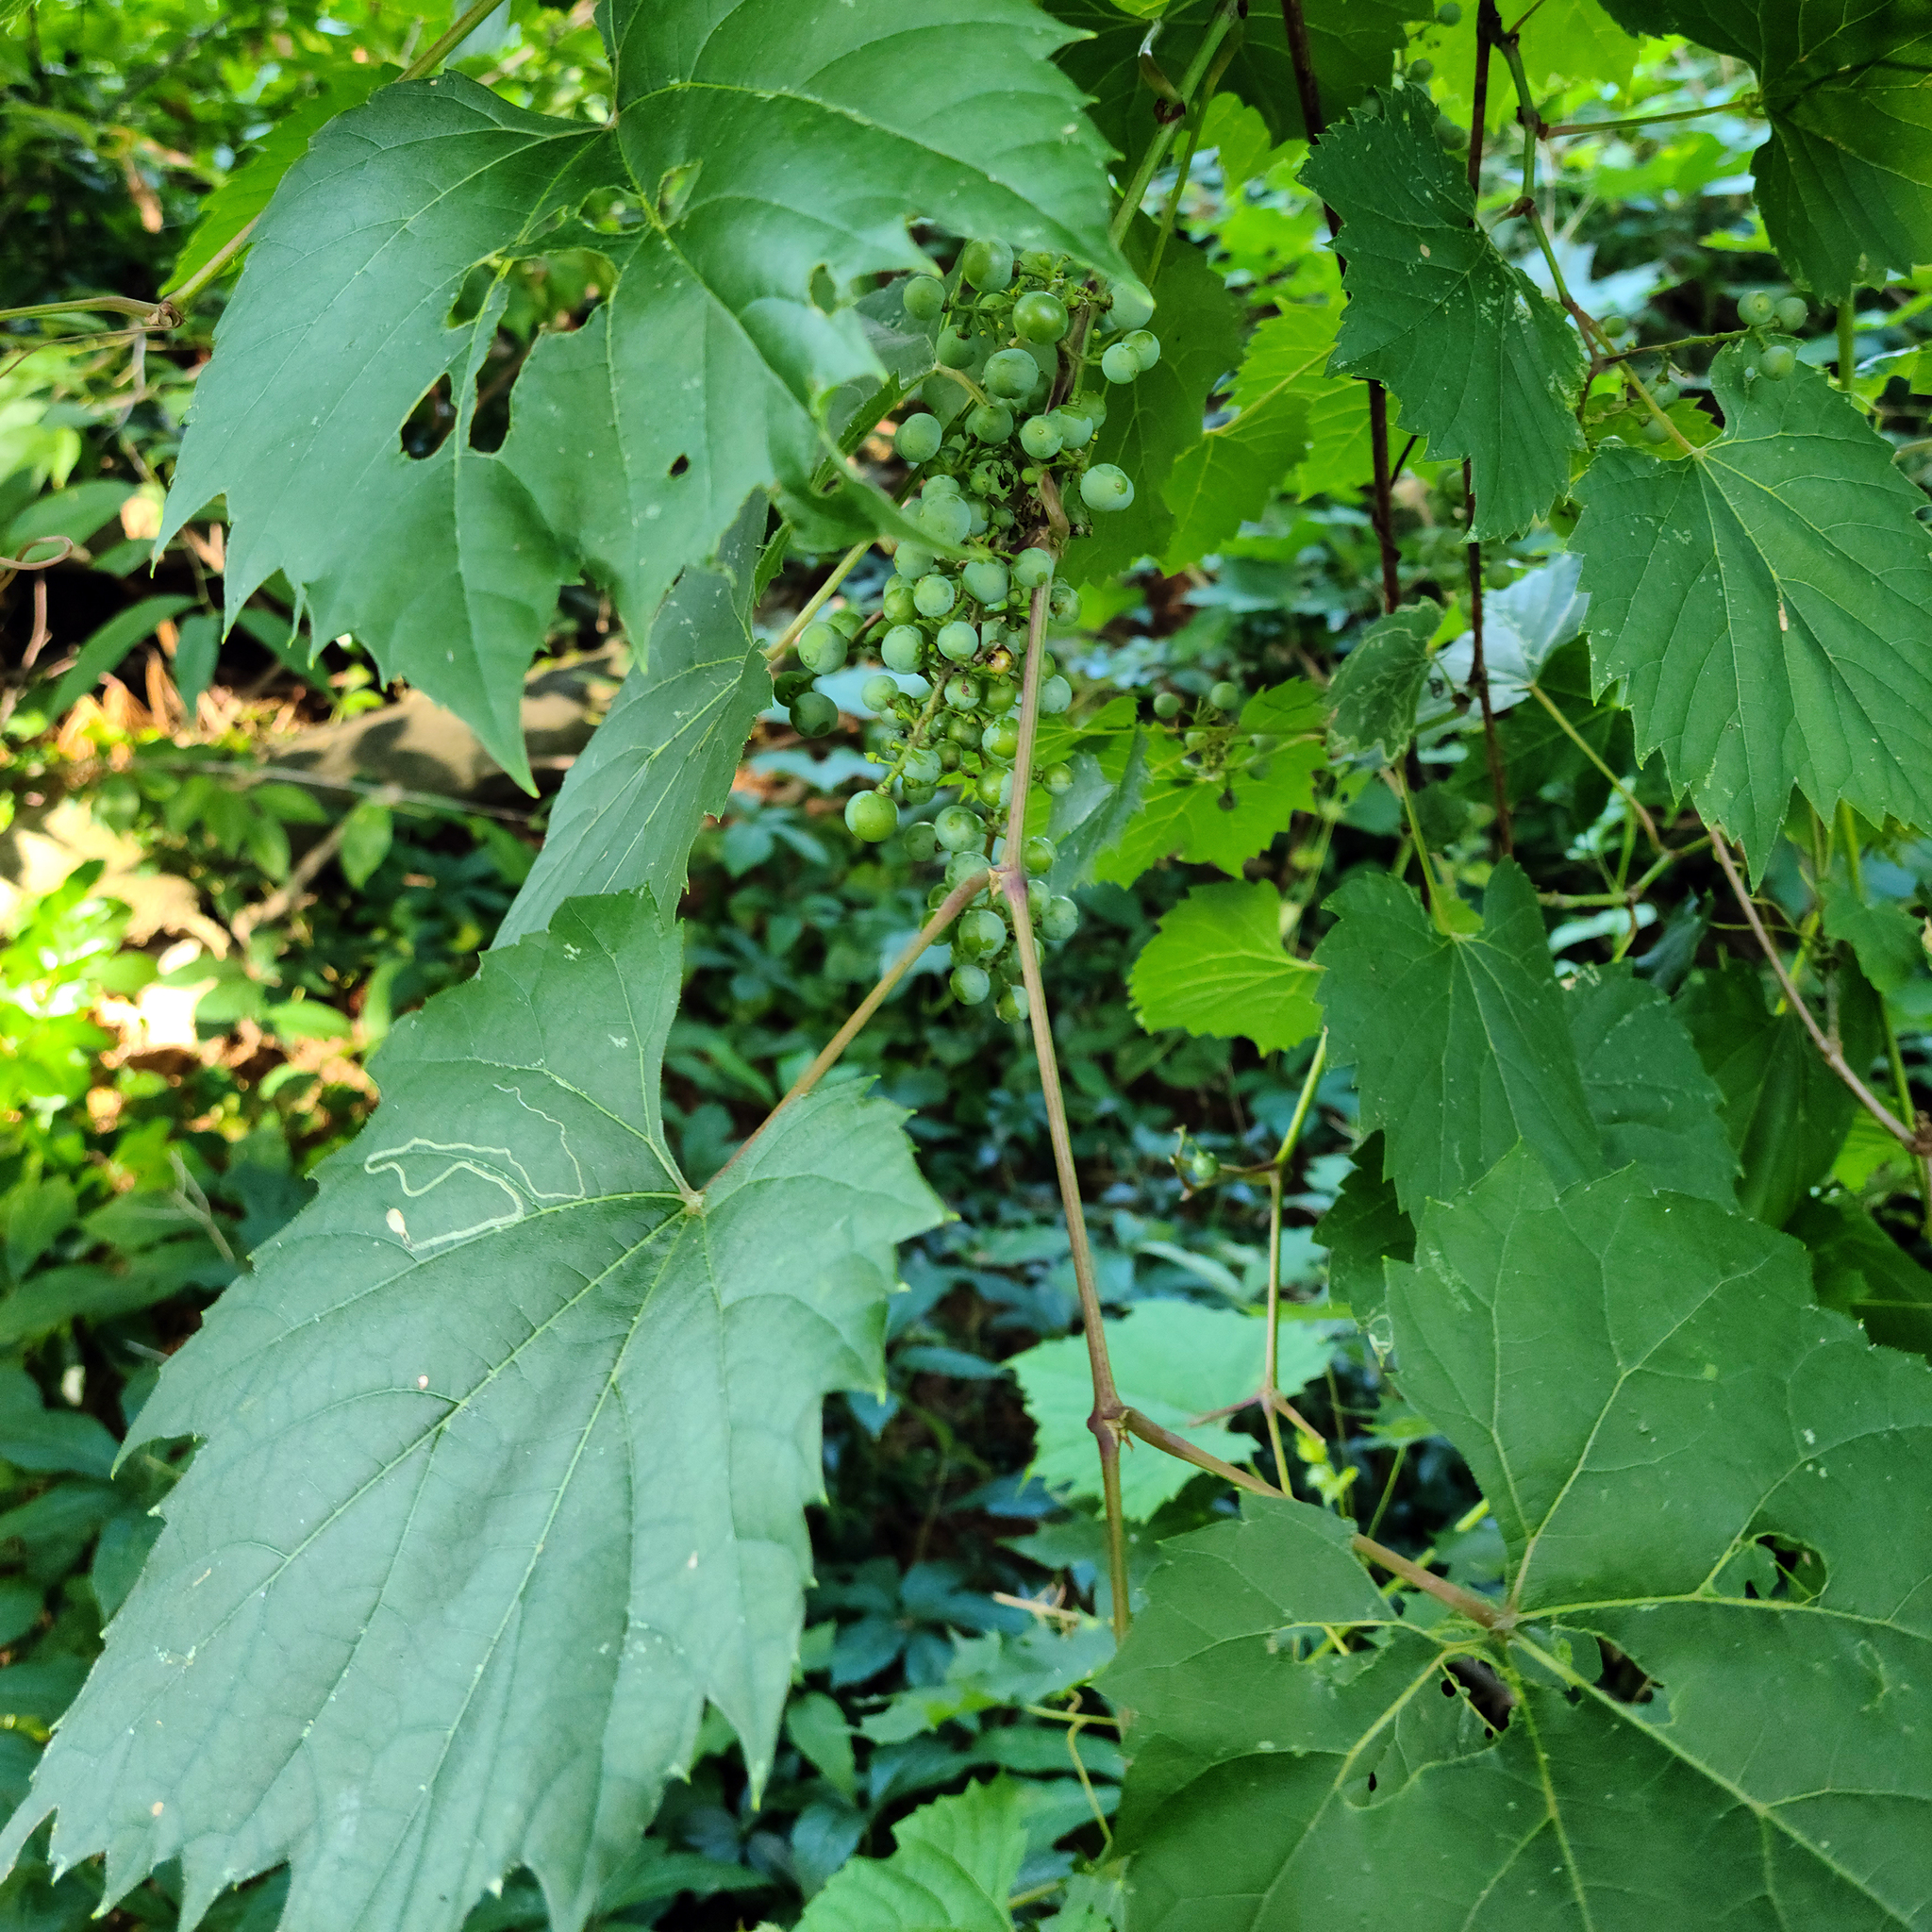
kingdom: Plantae
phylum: Tracheophyta
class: Magnoliopsida
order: Vitales
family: Vitaceae
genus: Vitis
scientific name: Vitis riparia
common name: Frost grape
